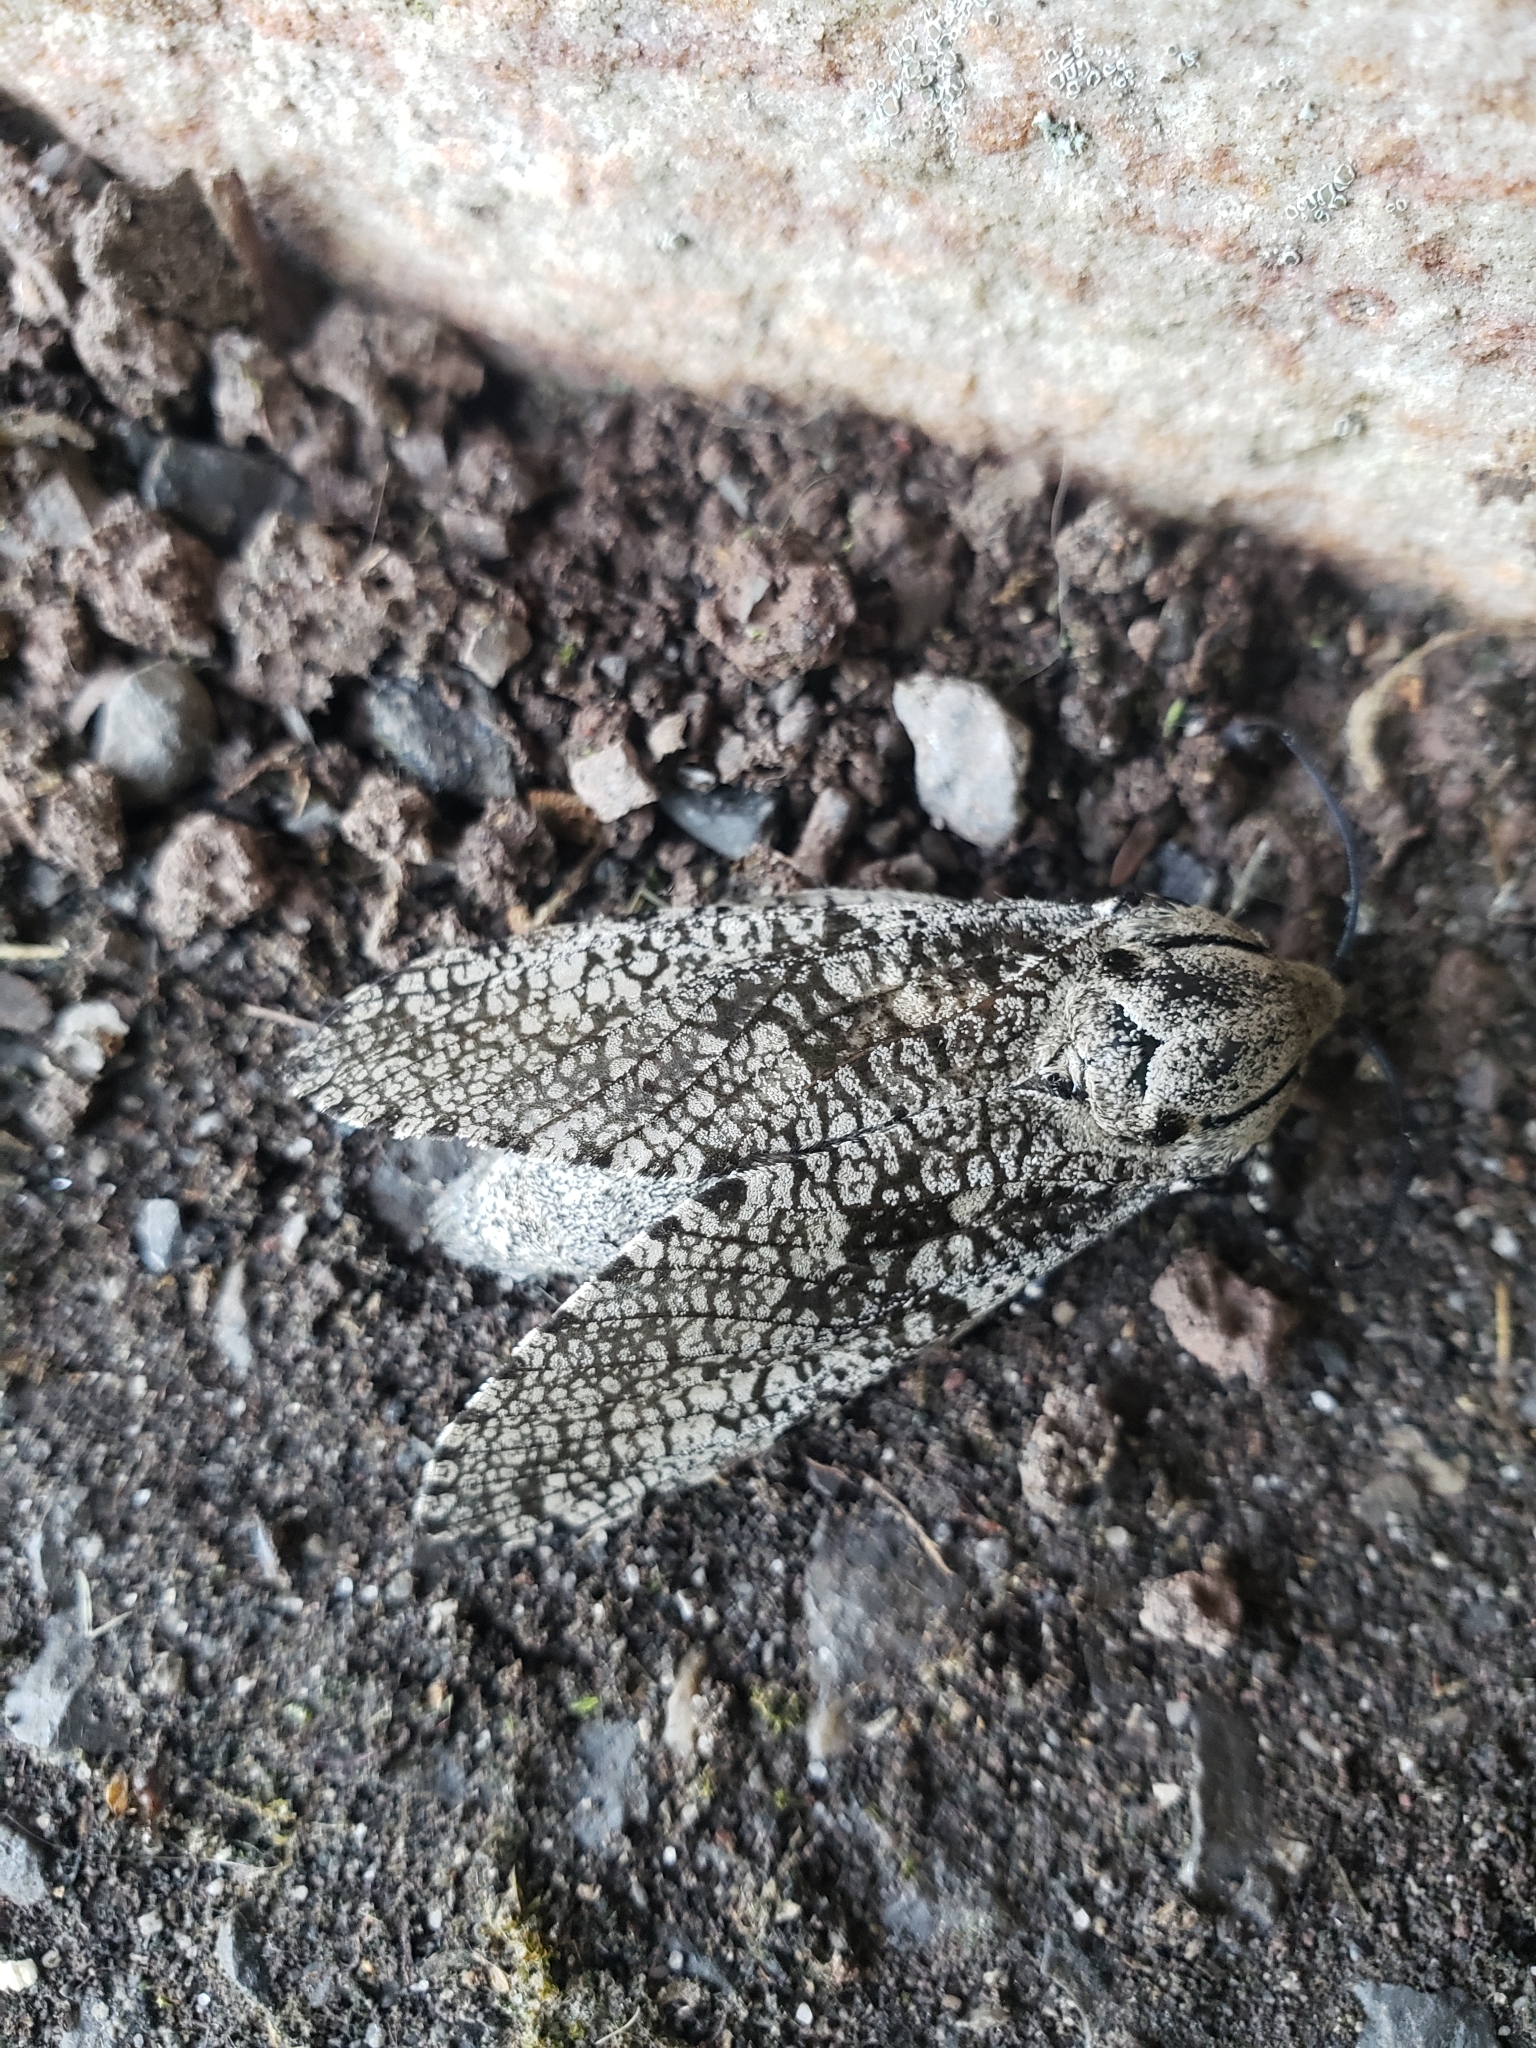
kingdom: Animalia
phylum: Arthropoda
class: Insecta
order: Lepidoptera
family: Cossidae
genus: Prionoxystus
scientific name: Prionoxystus robiniae
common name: Carpenterworm
